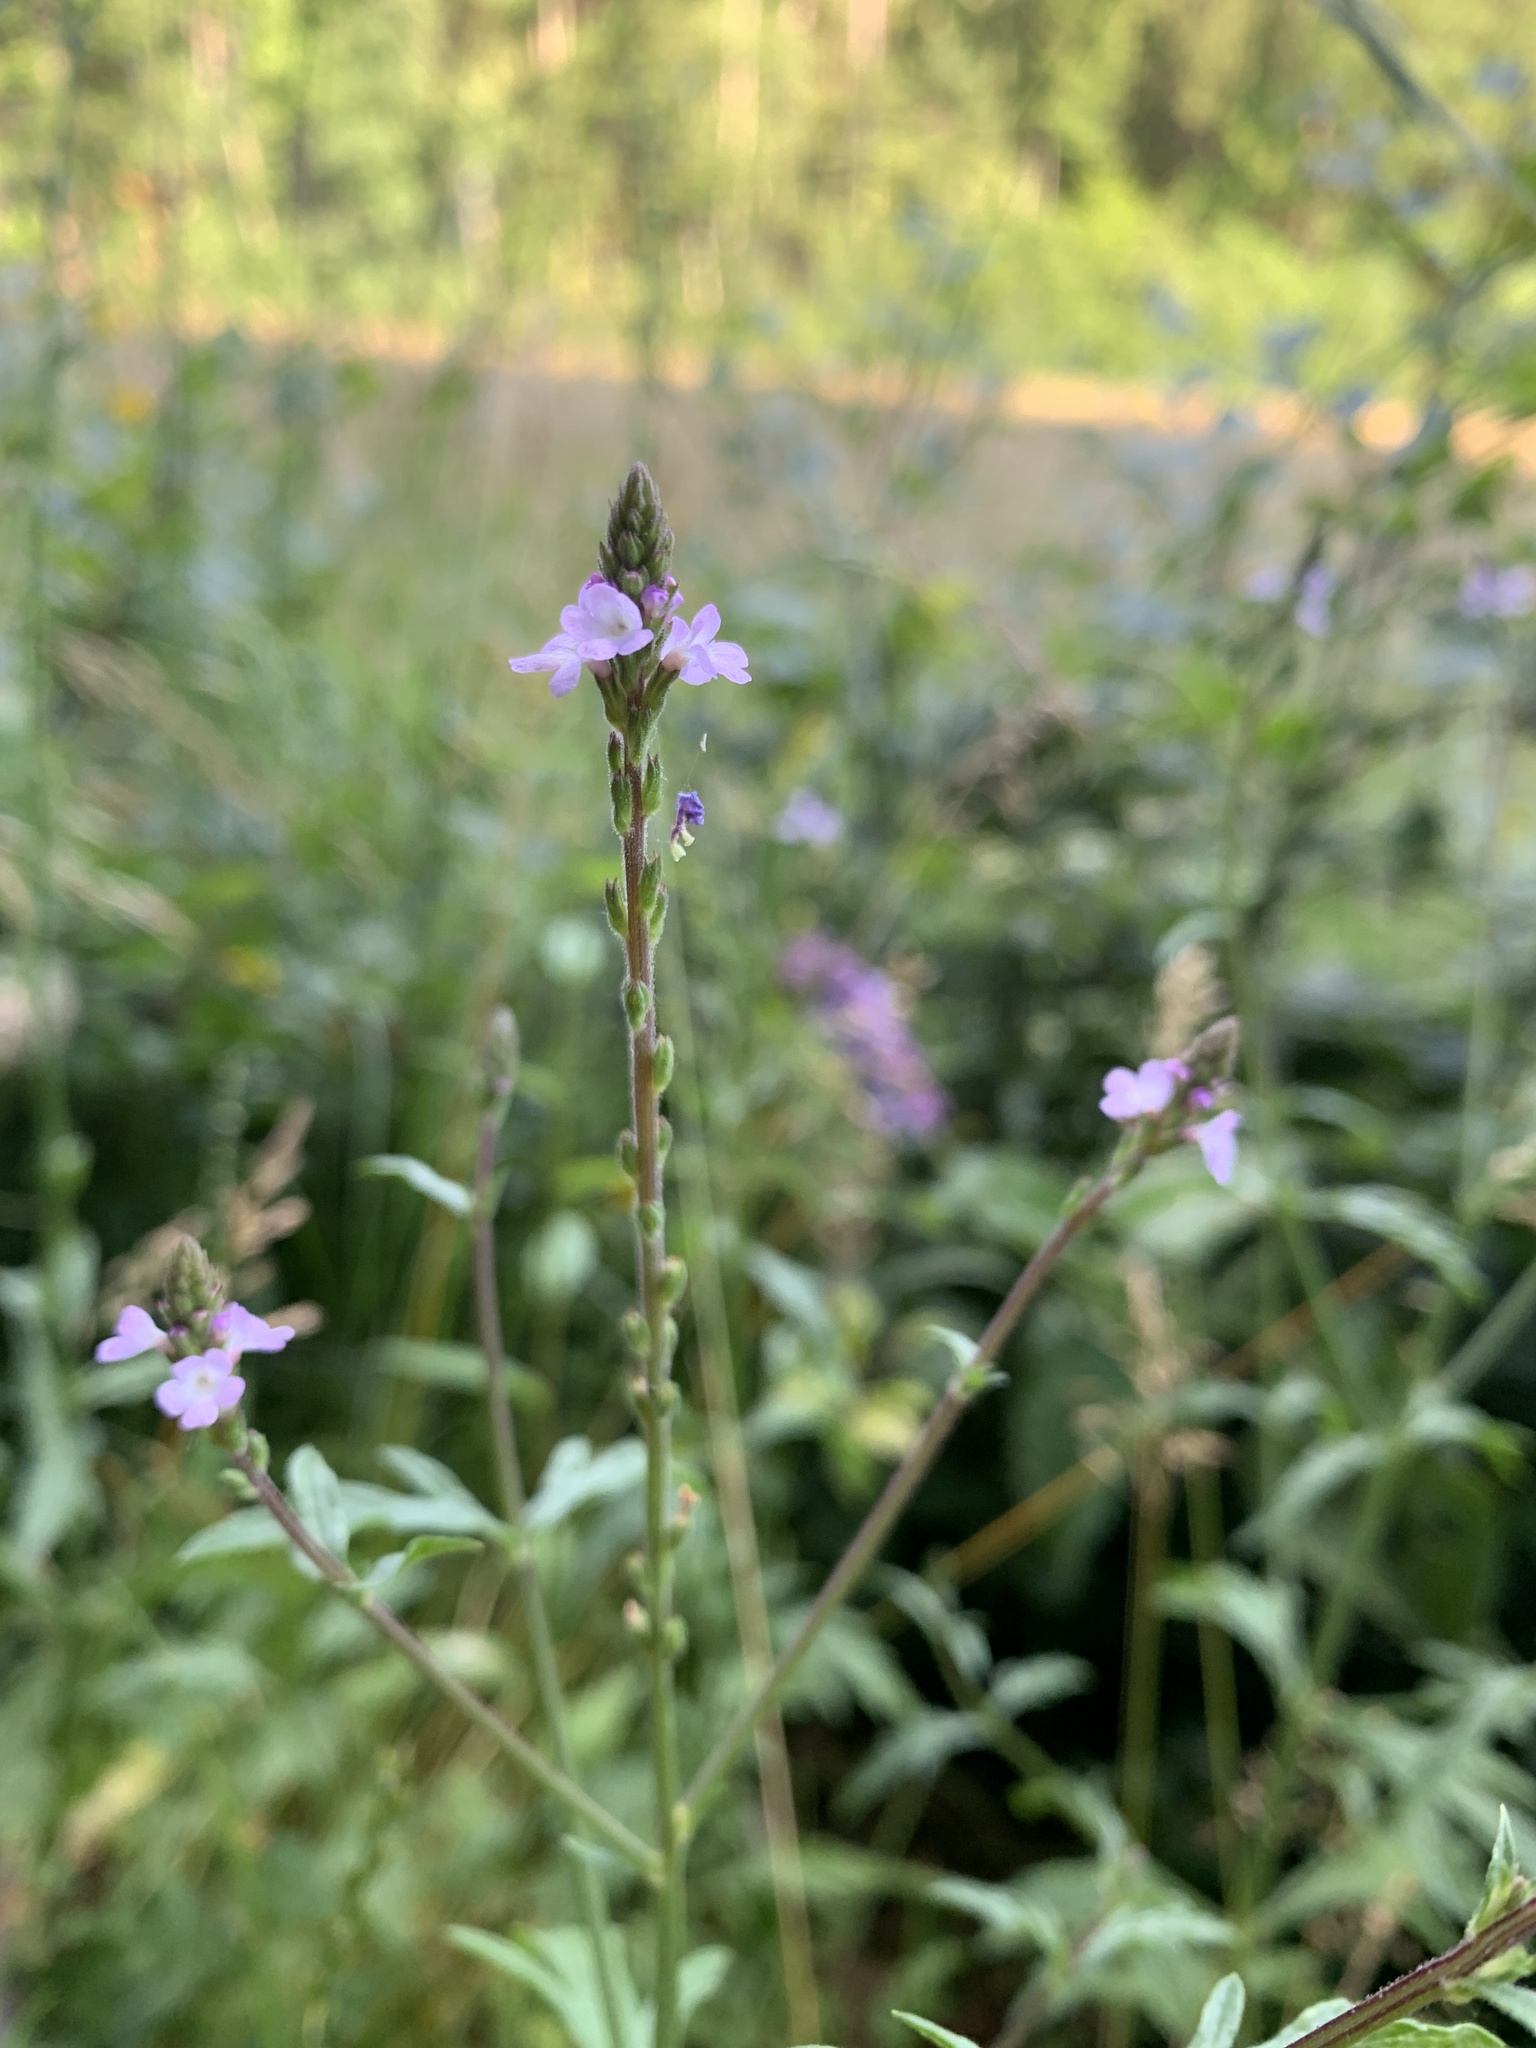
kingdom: Plantae
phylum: Tracheophyta
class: Magnoliopsida
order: Lamiales
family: Verbenaceae
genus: Verbena
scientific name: Verbena officinalis
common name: Vervain
